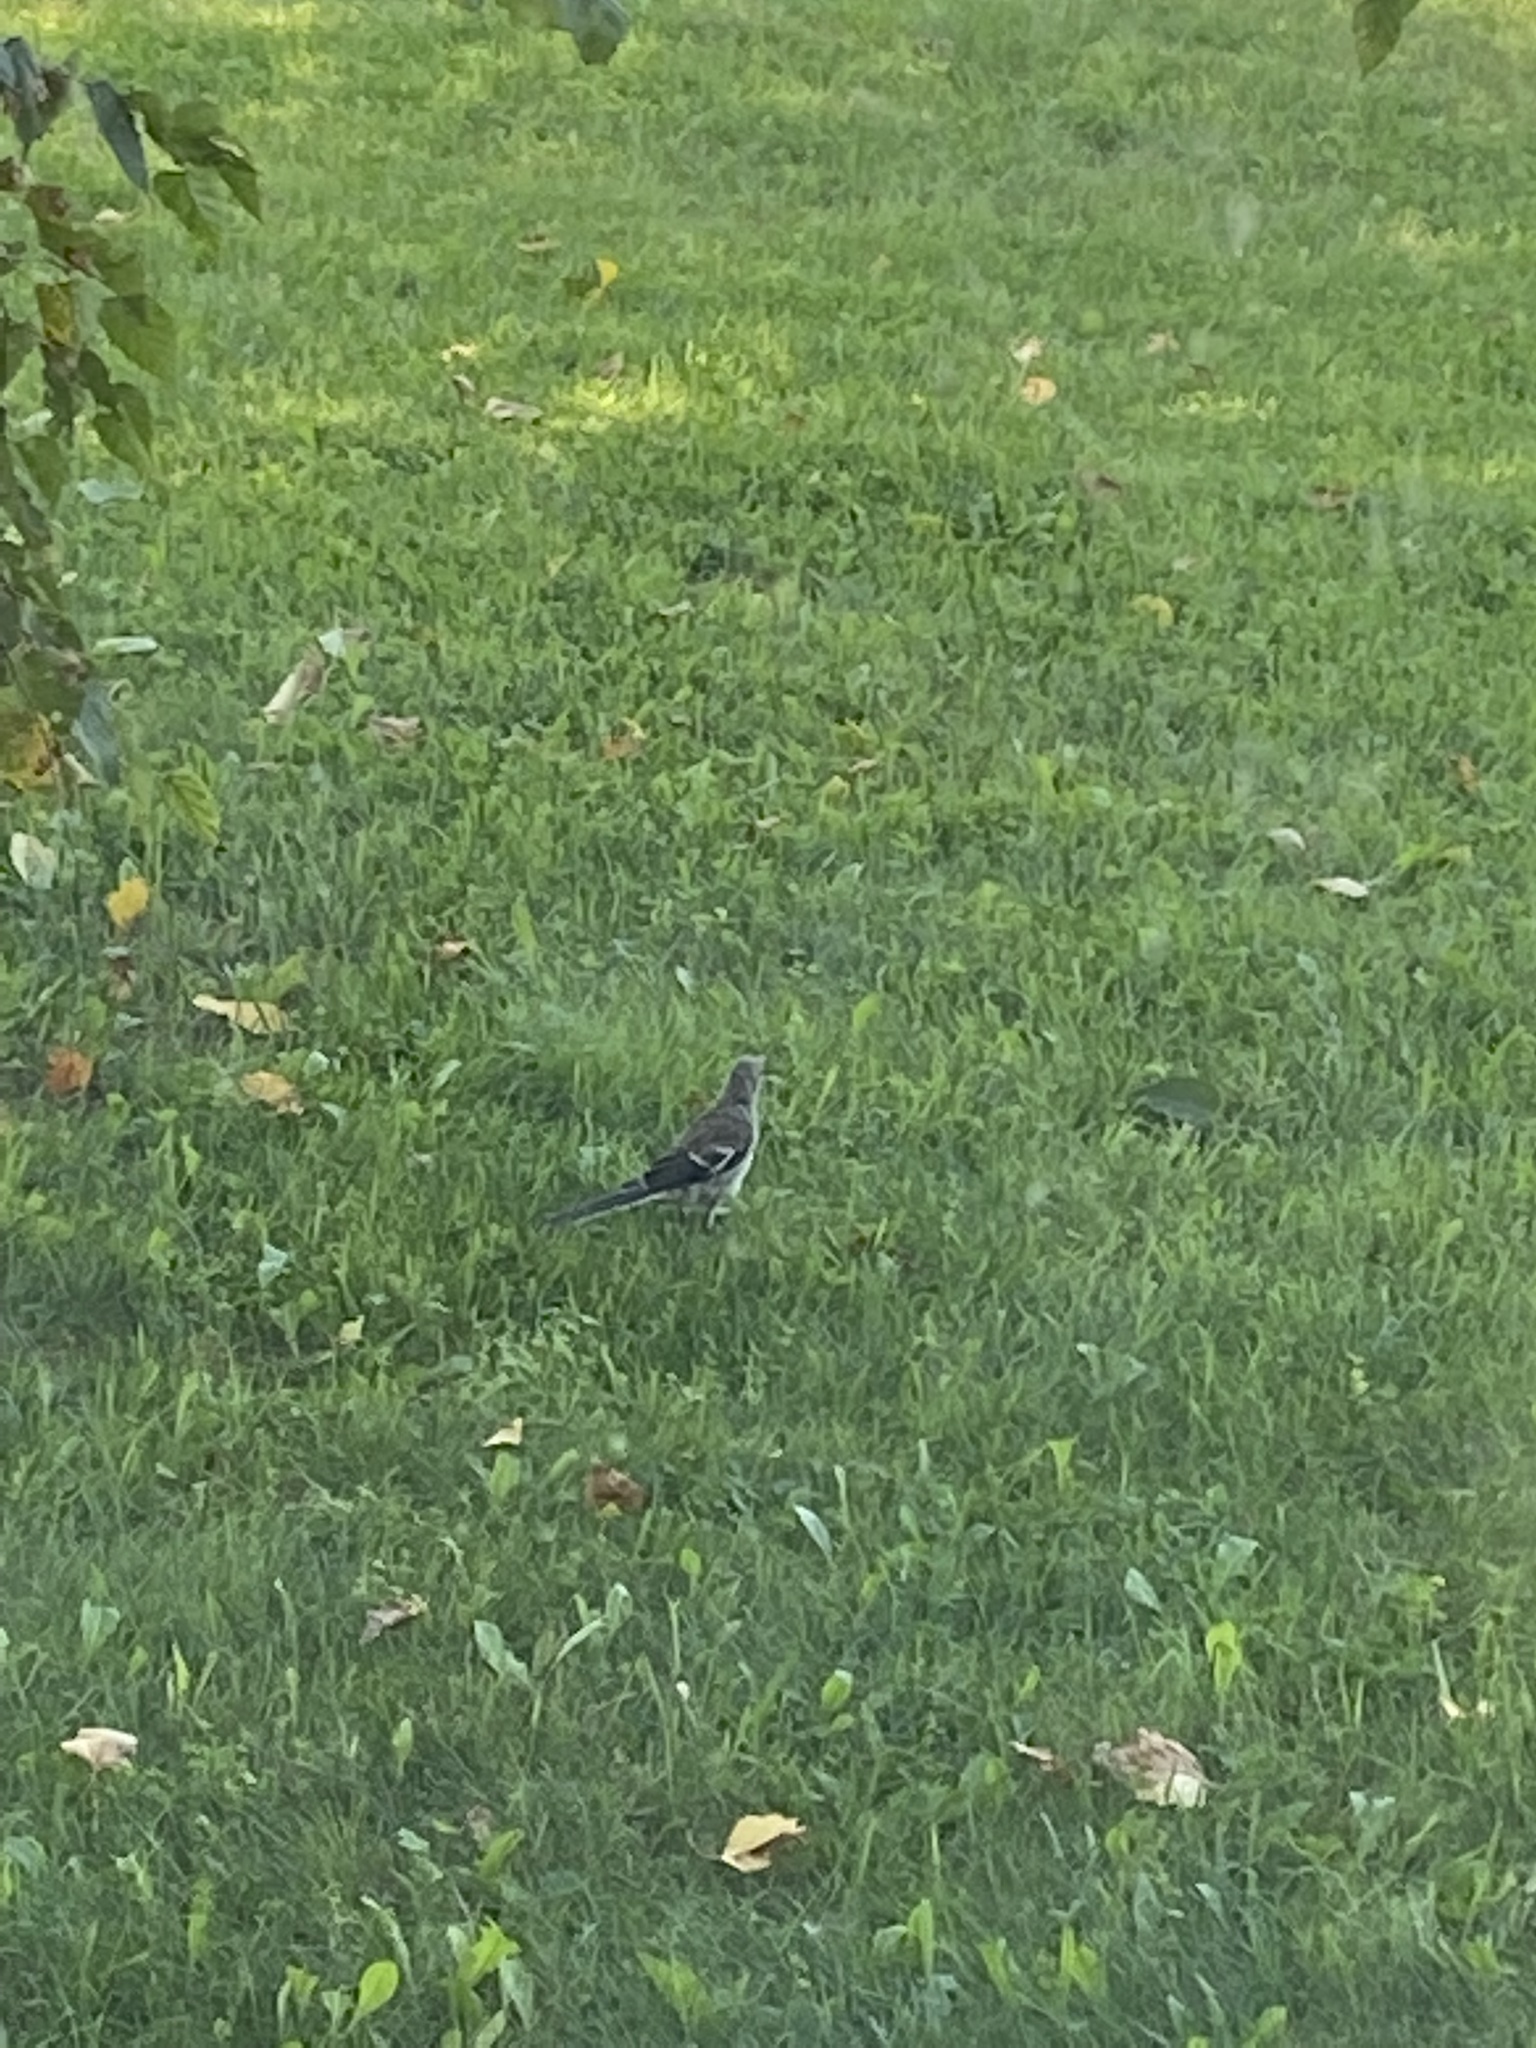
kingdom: Animalia
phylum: Chordata
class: Aves
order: Passeriformes
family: Mimidae
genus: Mimus
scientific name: Mimus polyglottos
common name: Northern mockingbird
